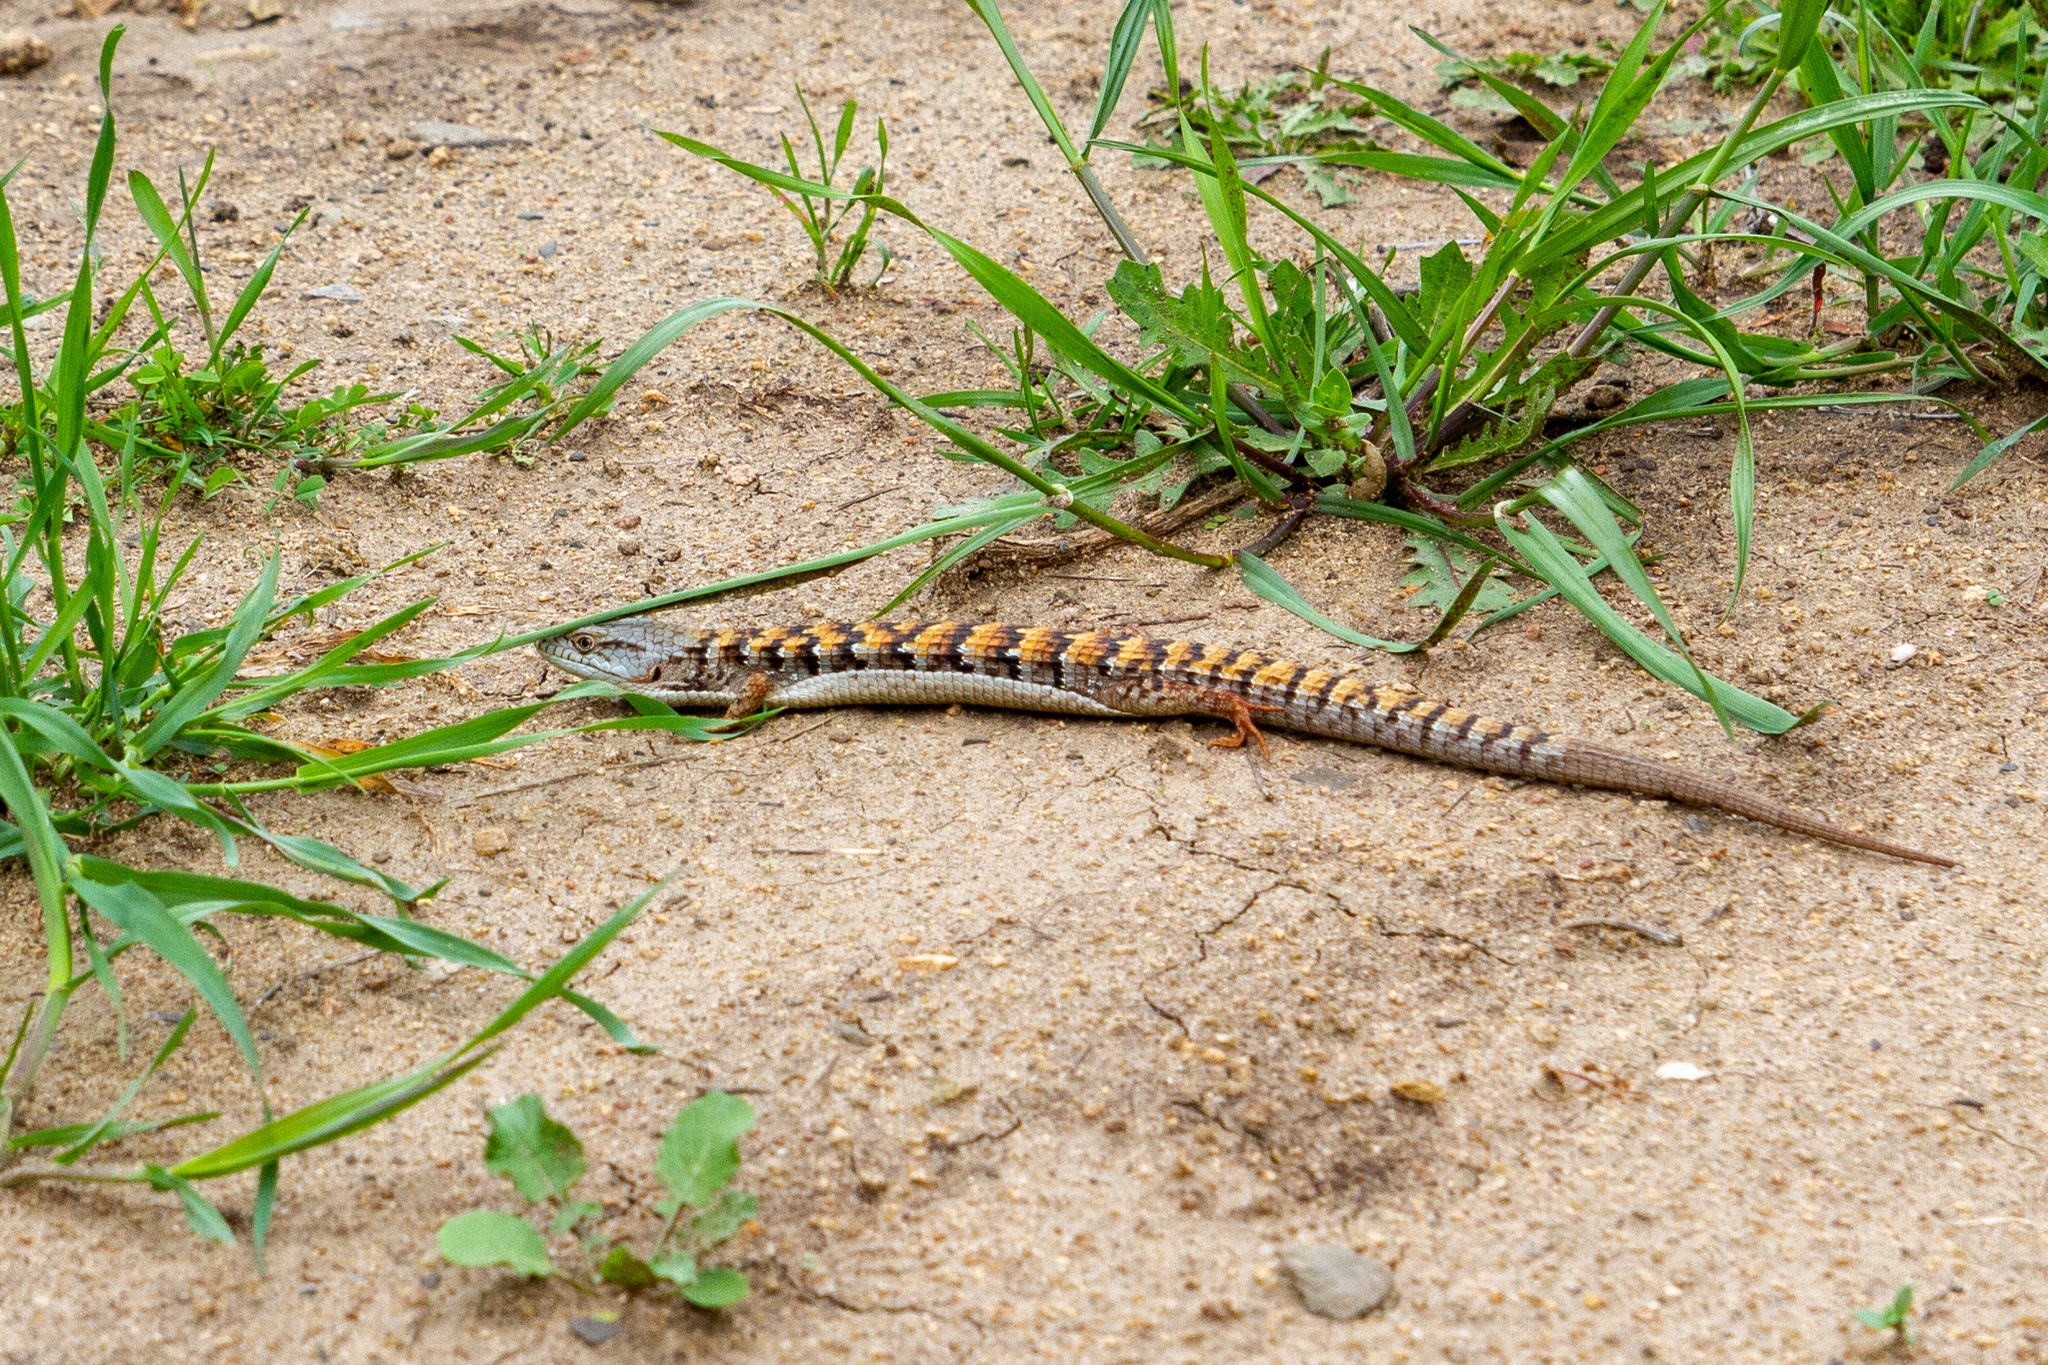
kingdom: Animalia
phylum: Chordata
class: Squamata
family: Anguidae
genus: Elgaria
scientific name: Elgaria multicarinata
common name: Southern alligator lizard
